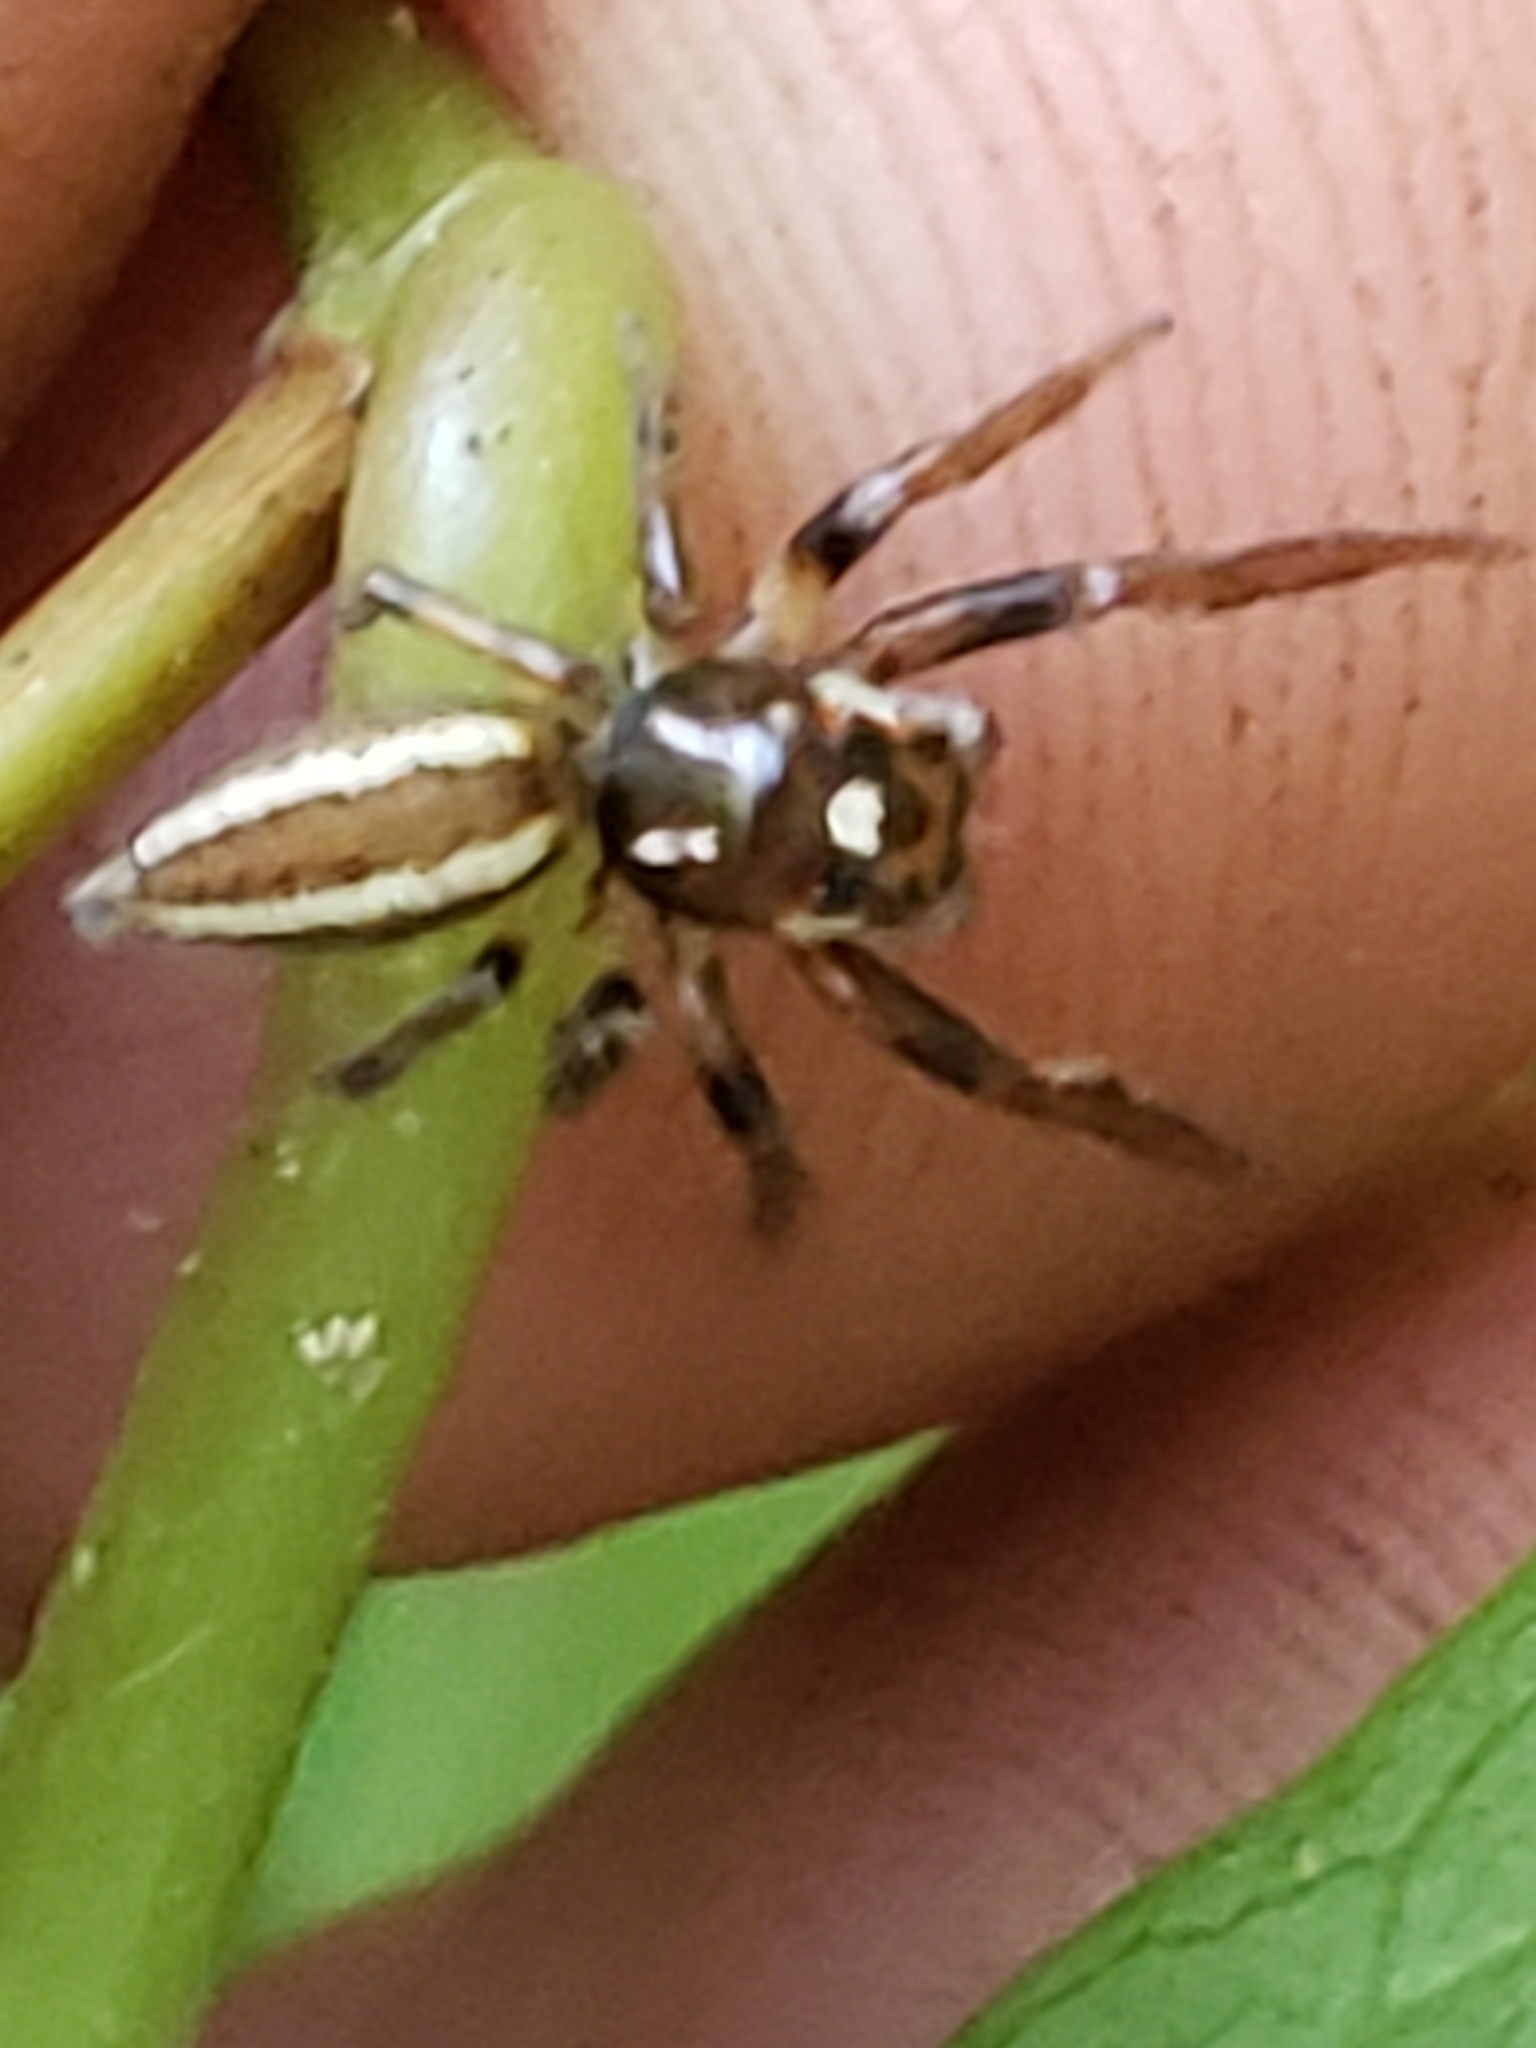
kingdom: Animalia
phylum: Arthropoda
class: Arachnida
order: Araneae
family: Salticidae
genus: Colonus
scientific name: Colonus sylvanus
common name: Jumping spiders
